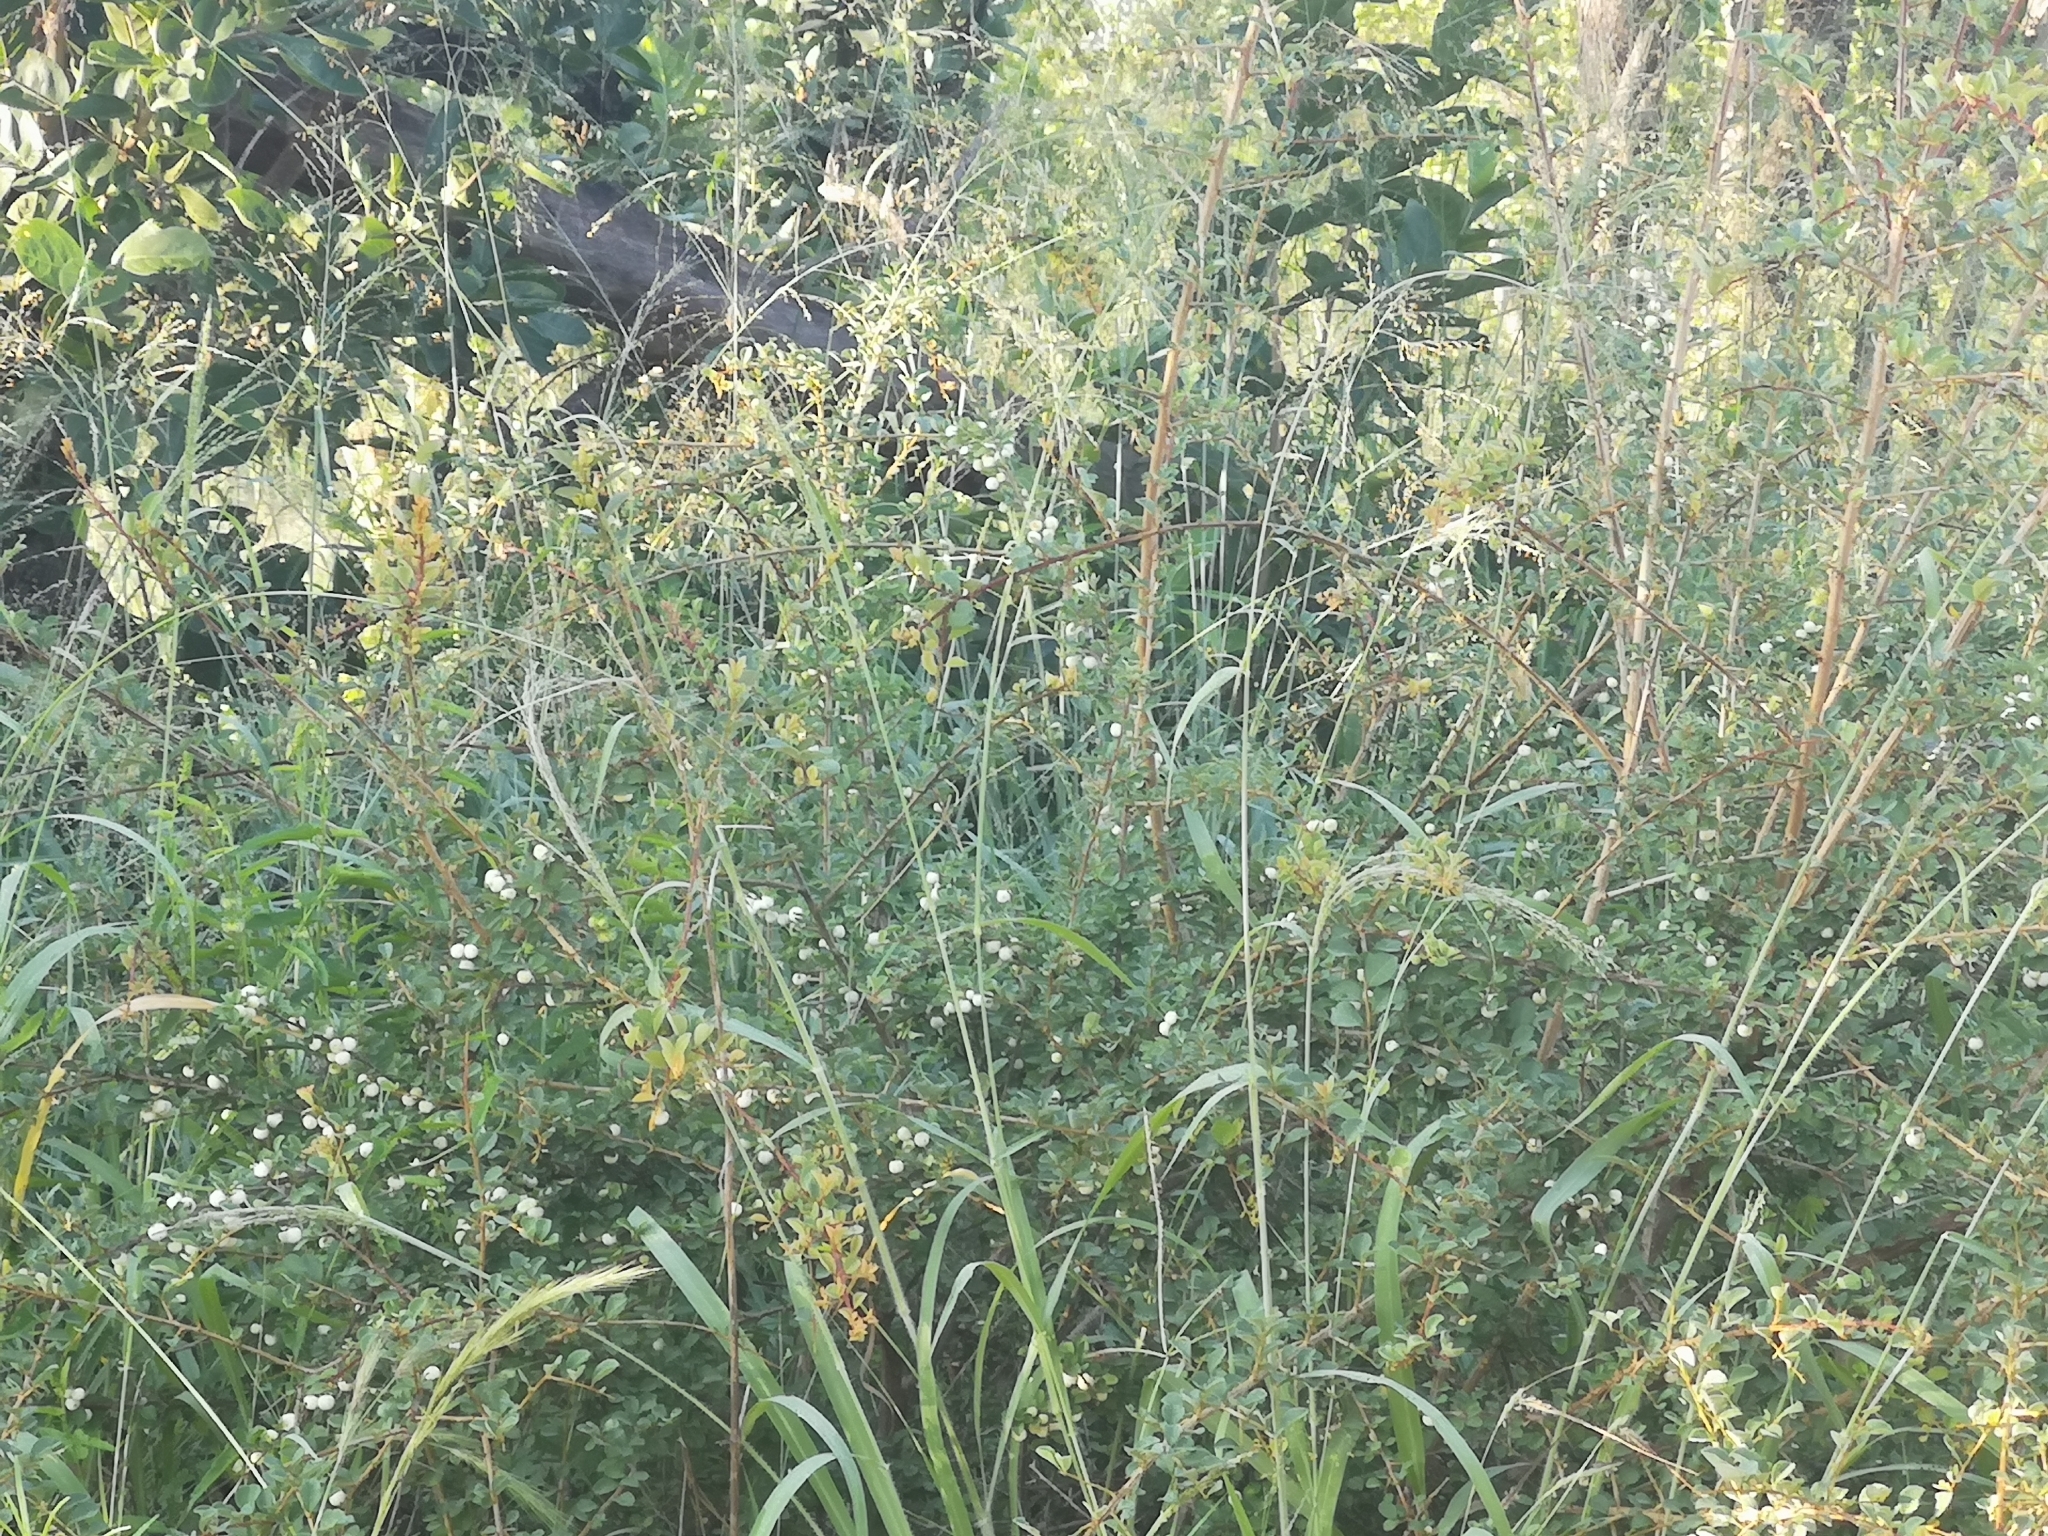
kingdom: Plantae
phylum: Tracheophyta
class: Magnoliopsida
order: Malpighiales
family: Phyllanthaceae
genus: Flueggea
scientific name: Flueggea virosa
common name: Common bushweed
